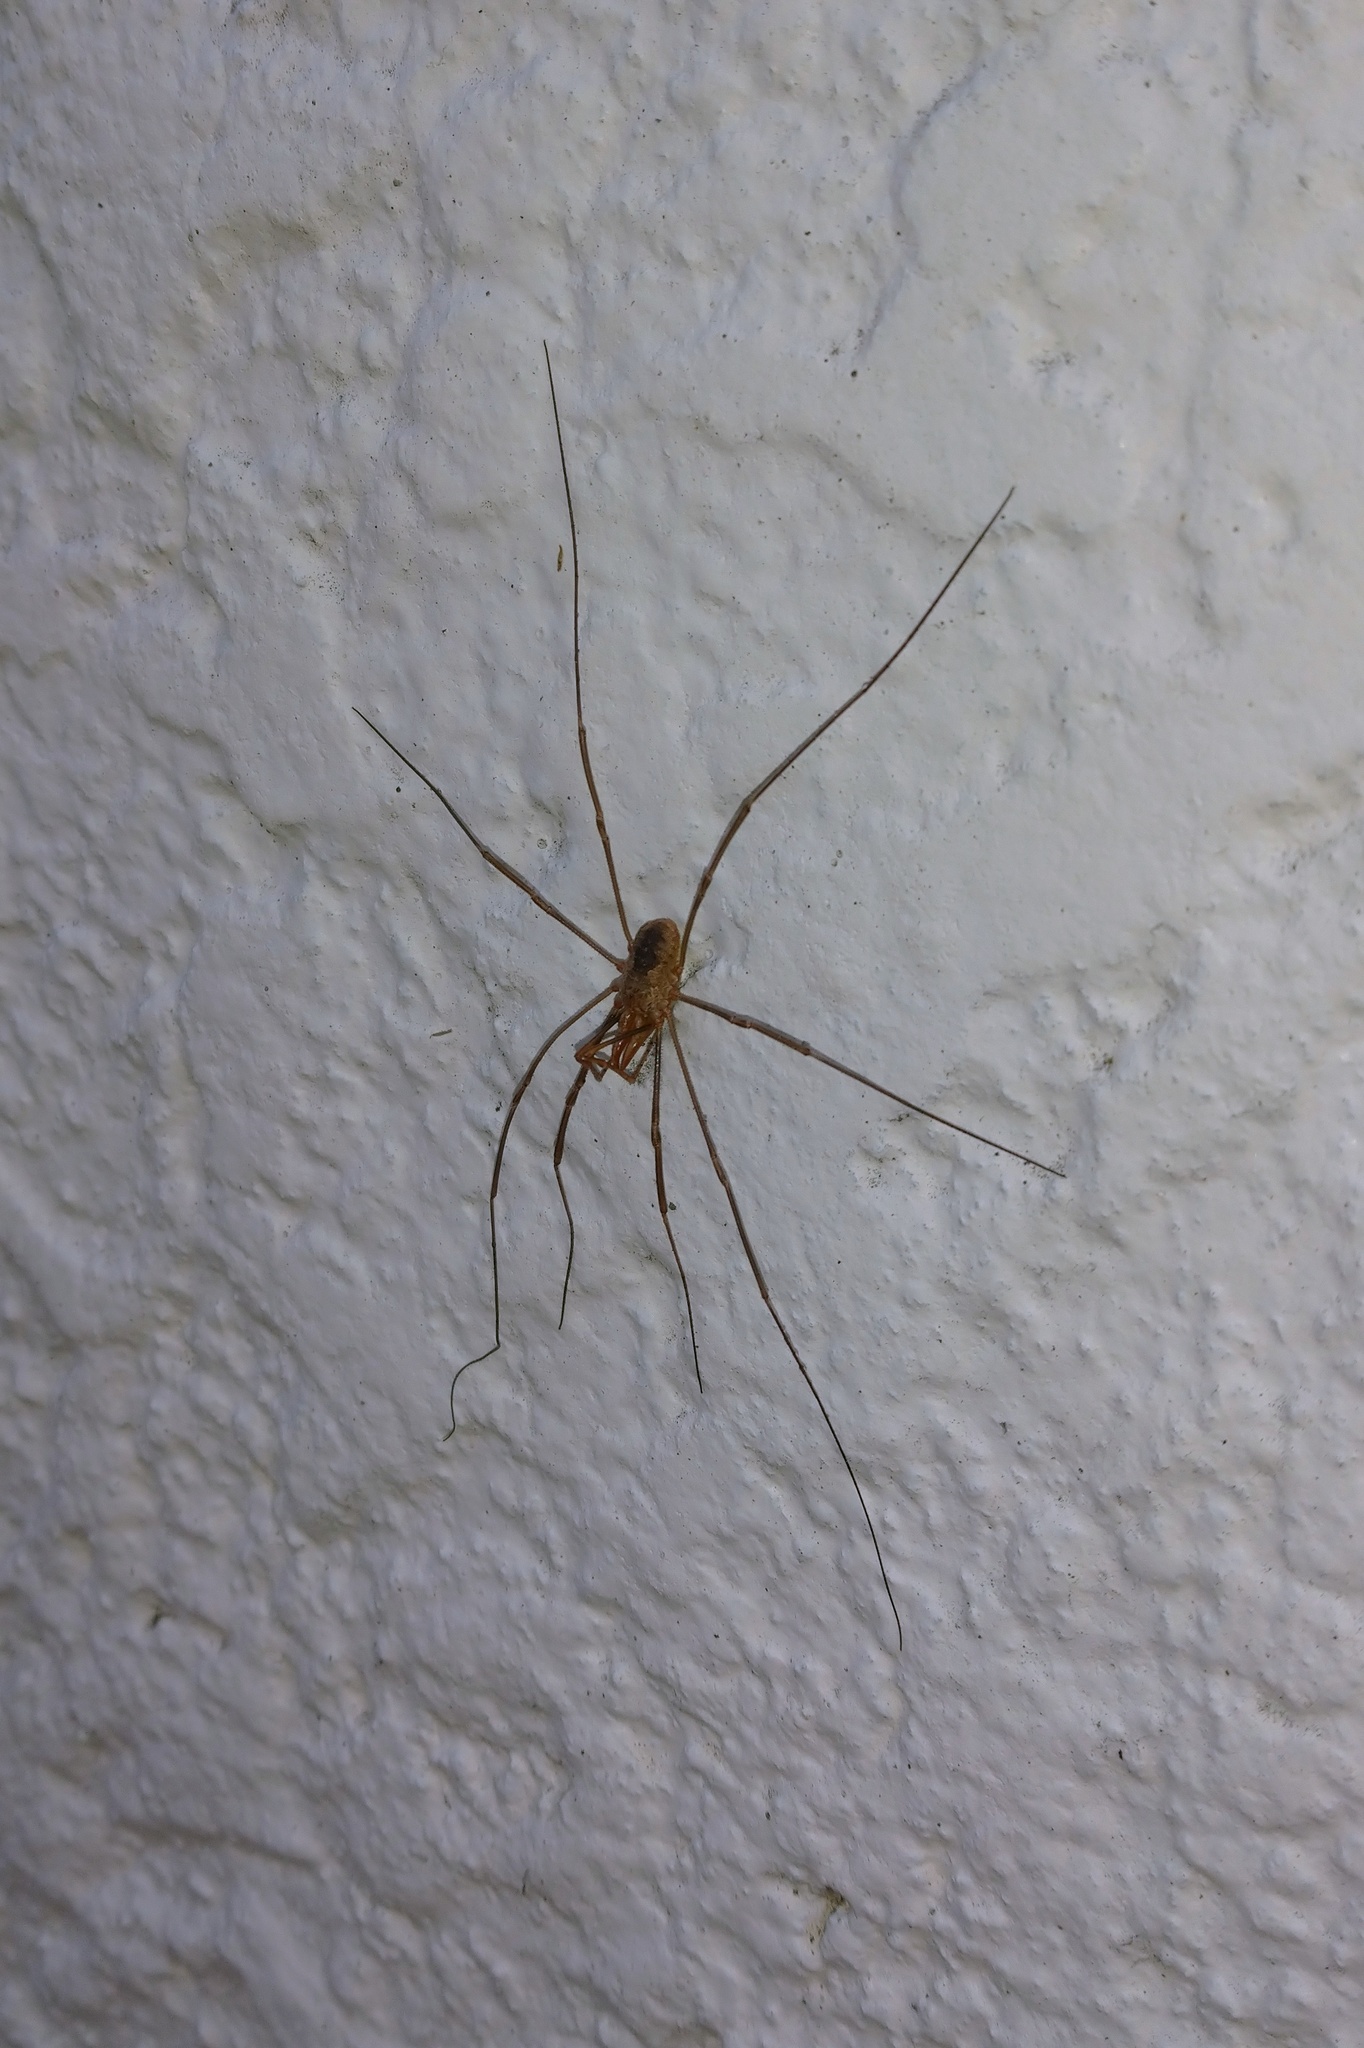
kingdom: Animalia
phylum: Arthropoda
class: Arachnida
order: Opiliones
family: Phalangiidae
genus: Phalangium
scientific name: Phalangium opilio
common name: Daddy longleg
